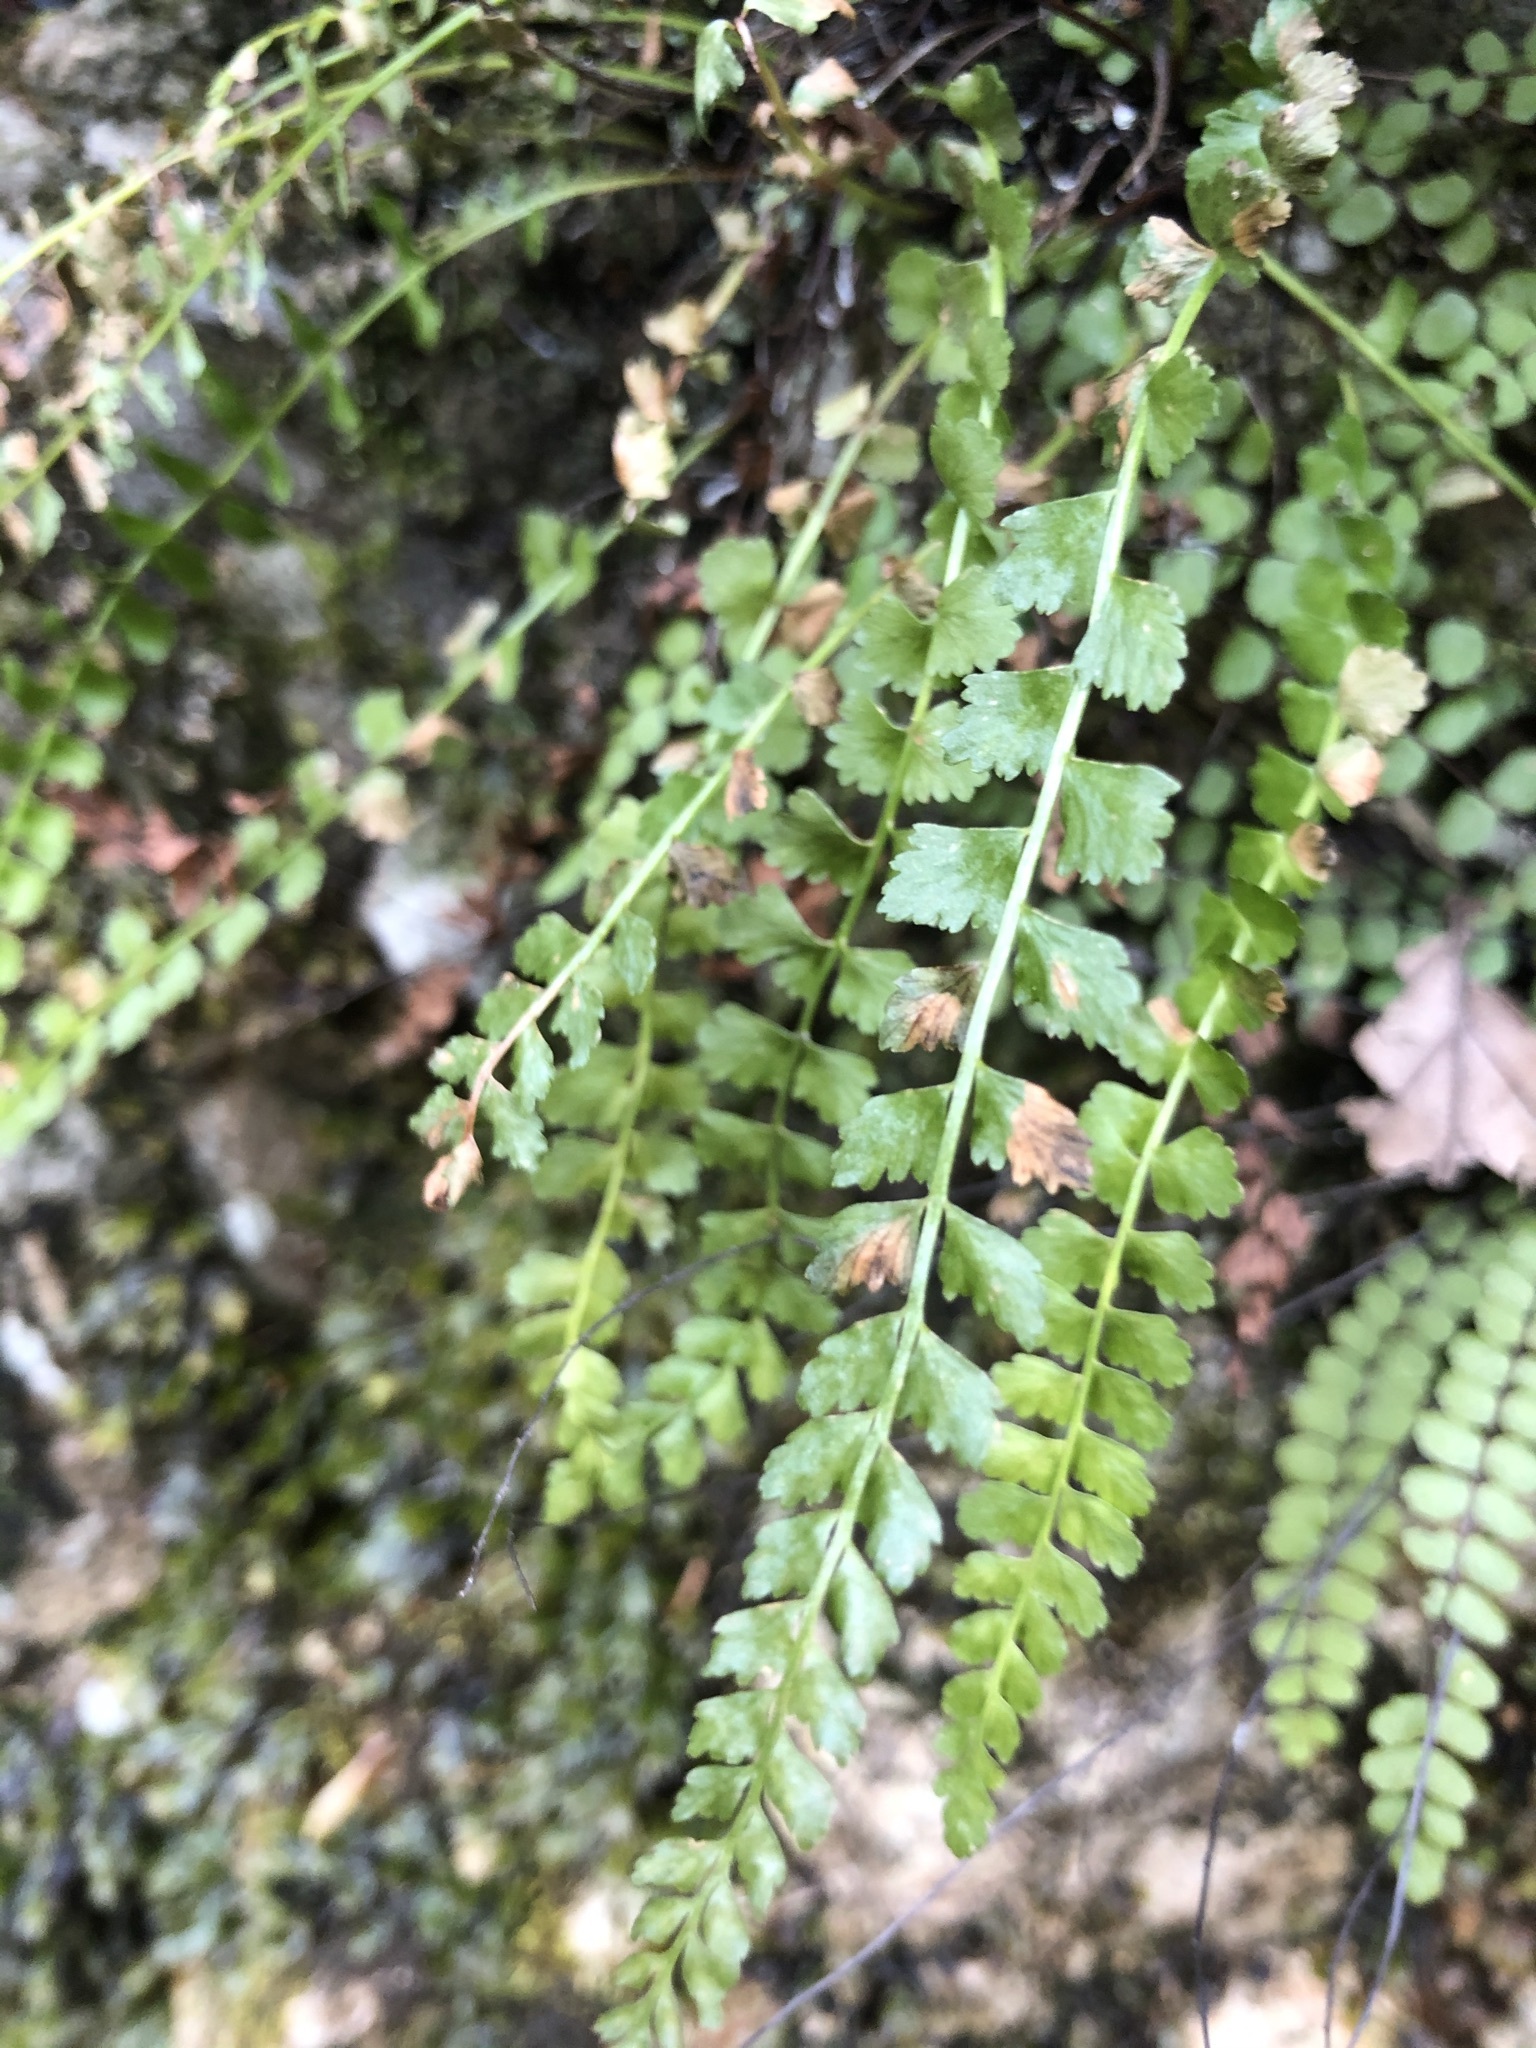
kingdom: Plantae
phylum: Tracheophyta
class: Polypodiopsida
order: Polypodiales
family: Aspleniaceae
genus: Asplenium
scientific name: Asplenium viride
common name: Green spleenwort
